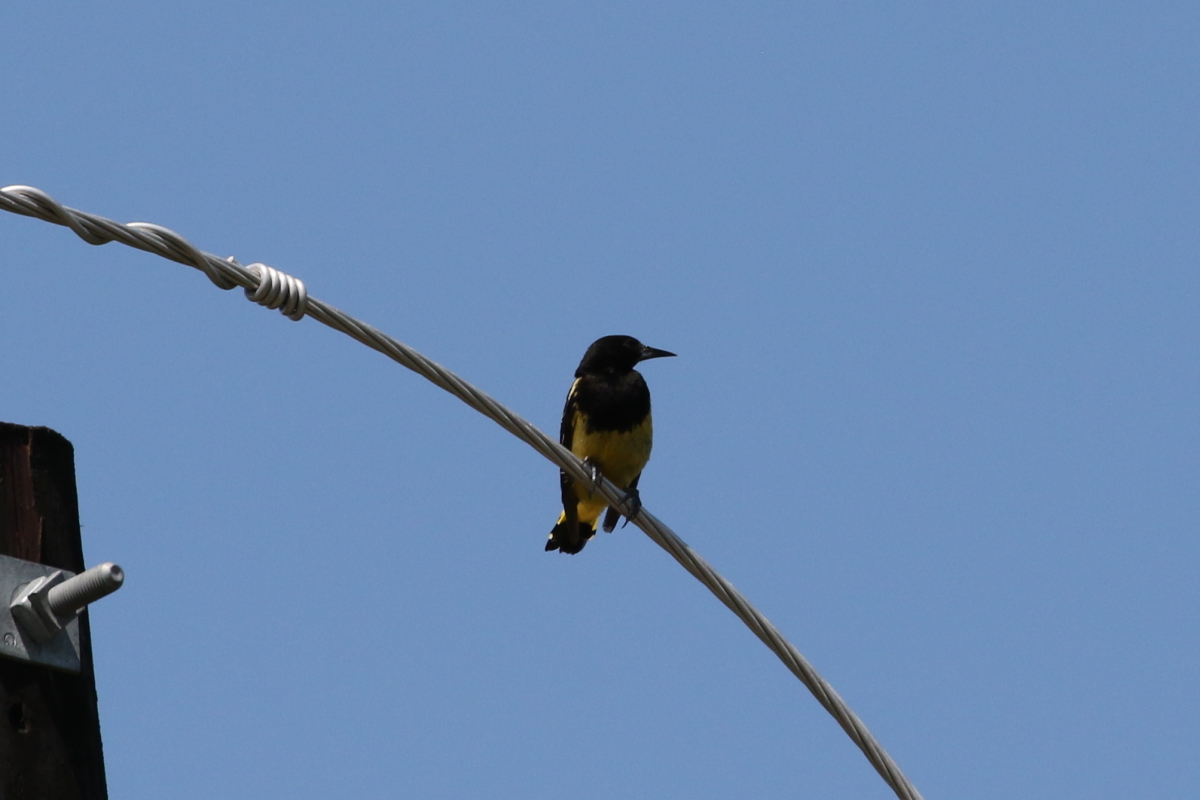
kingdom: Animalia
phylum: Chordata
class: Aves
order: Passeriformes
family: Icteridae
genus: Icterus
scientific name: Icterus parisorum
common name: Scott's oriole
